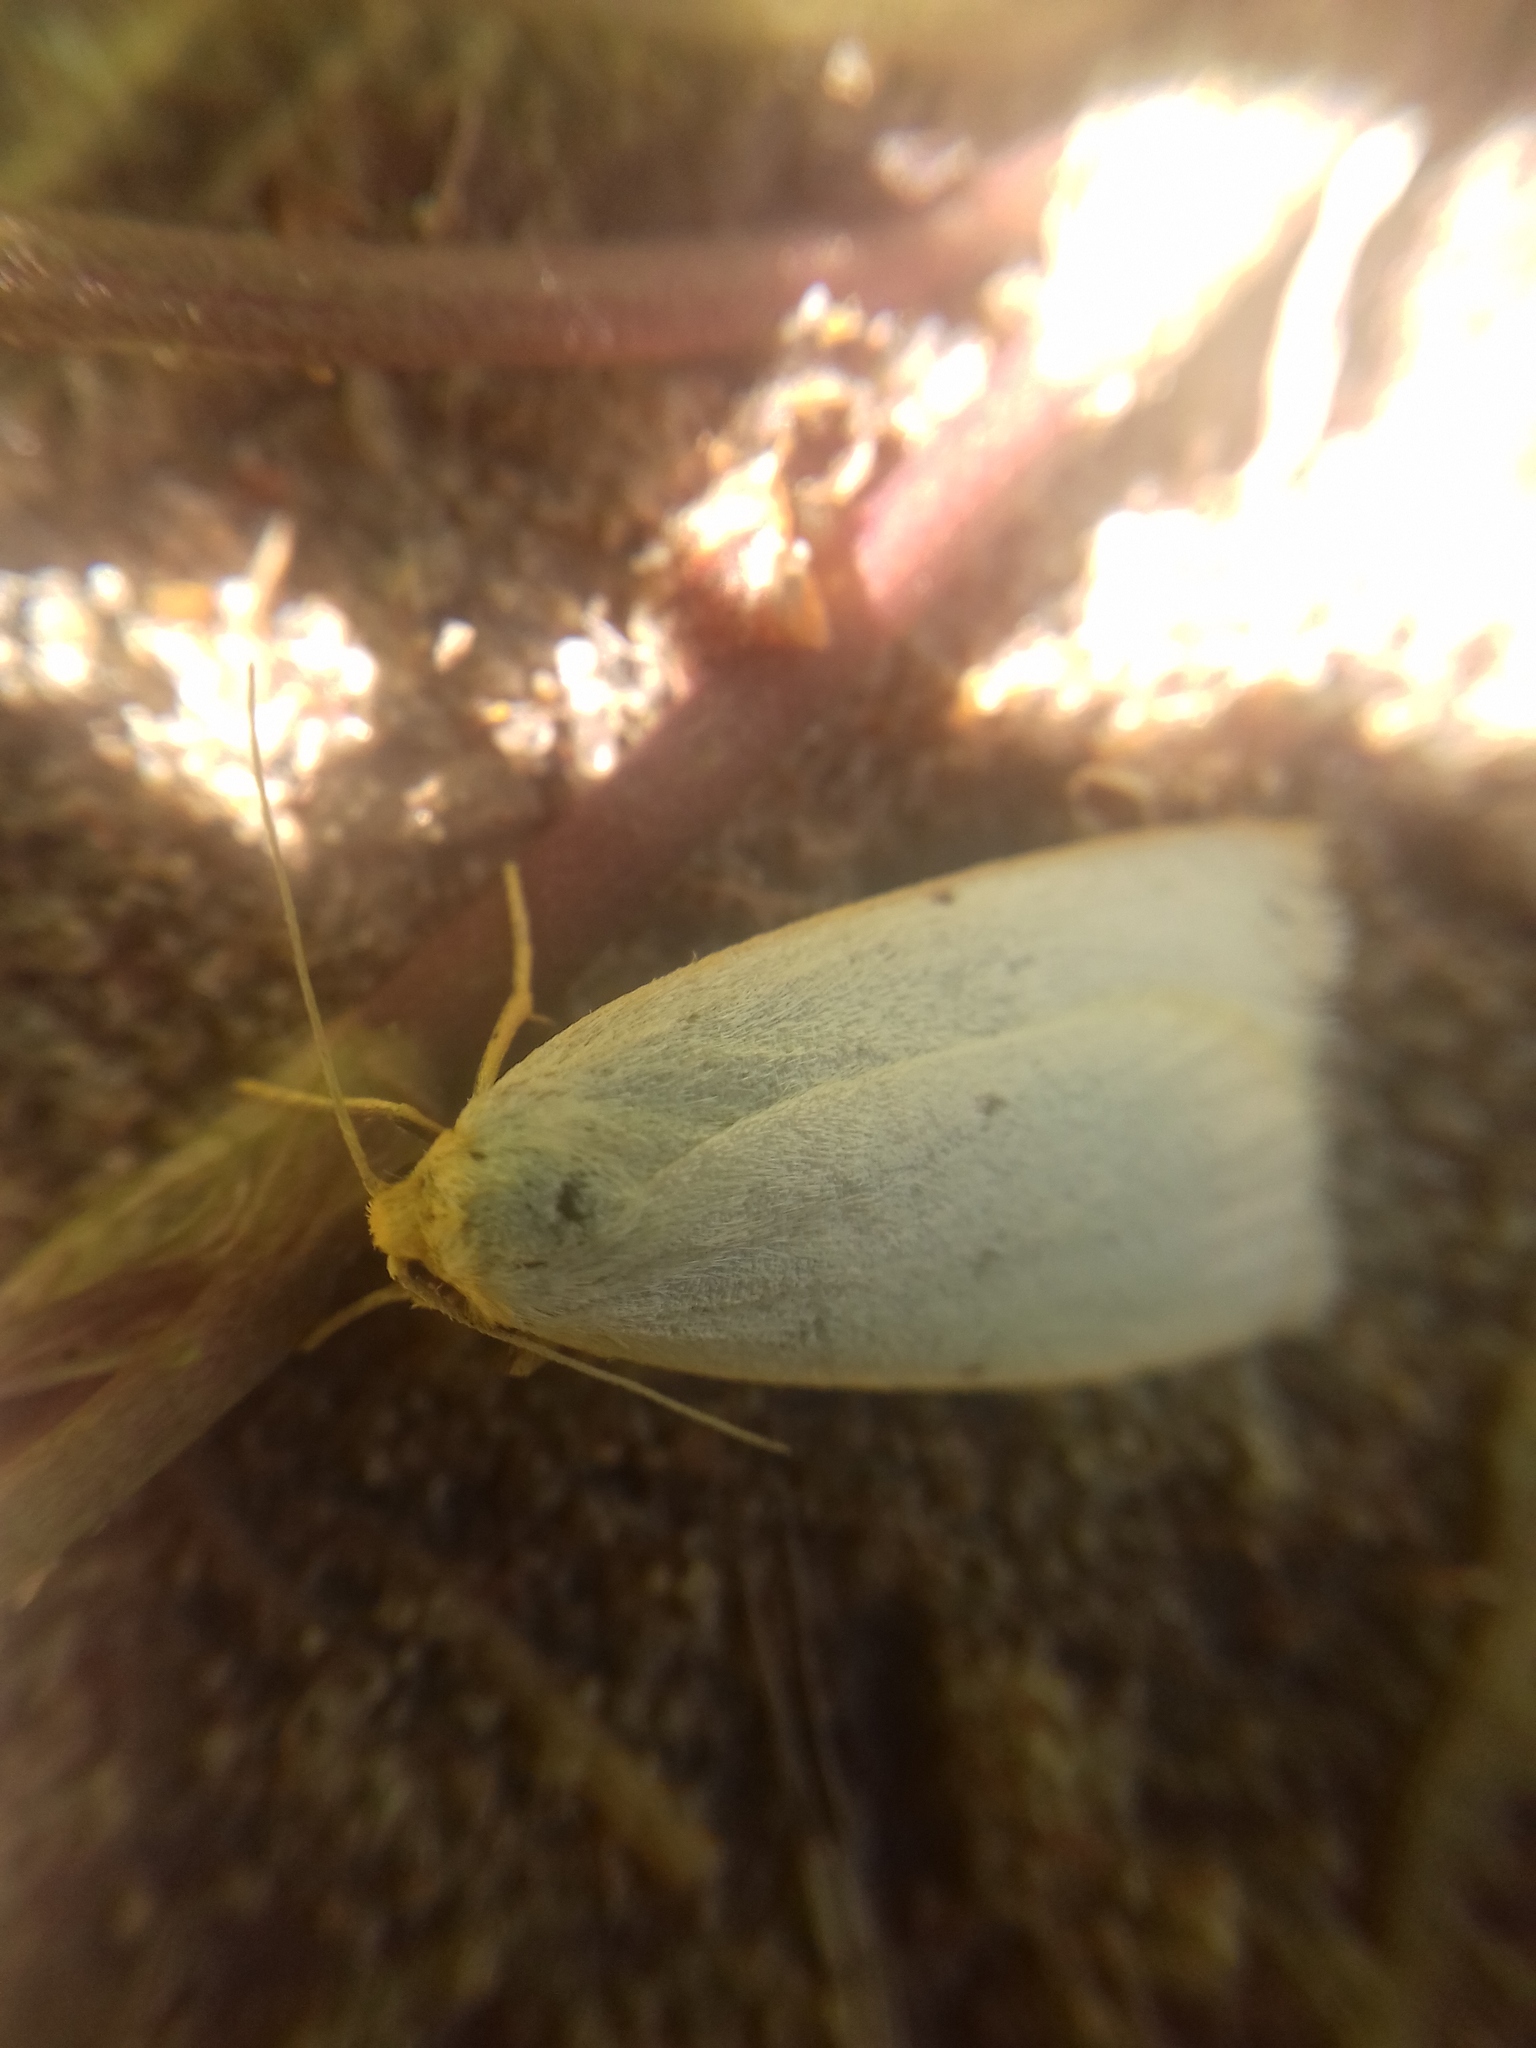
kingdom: Animalia
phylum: Arthropoda
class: Insecta
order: Lepidoptera
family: Erebidae
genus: Cybosia
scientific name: Cybosia mesomella
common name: Four-dotted footman
